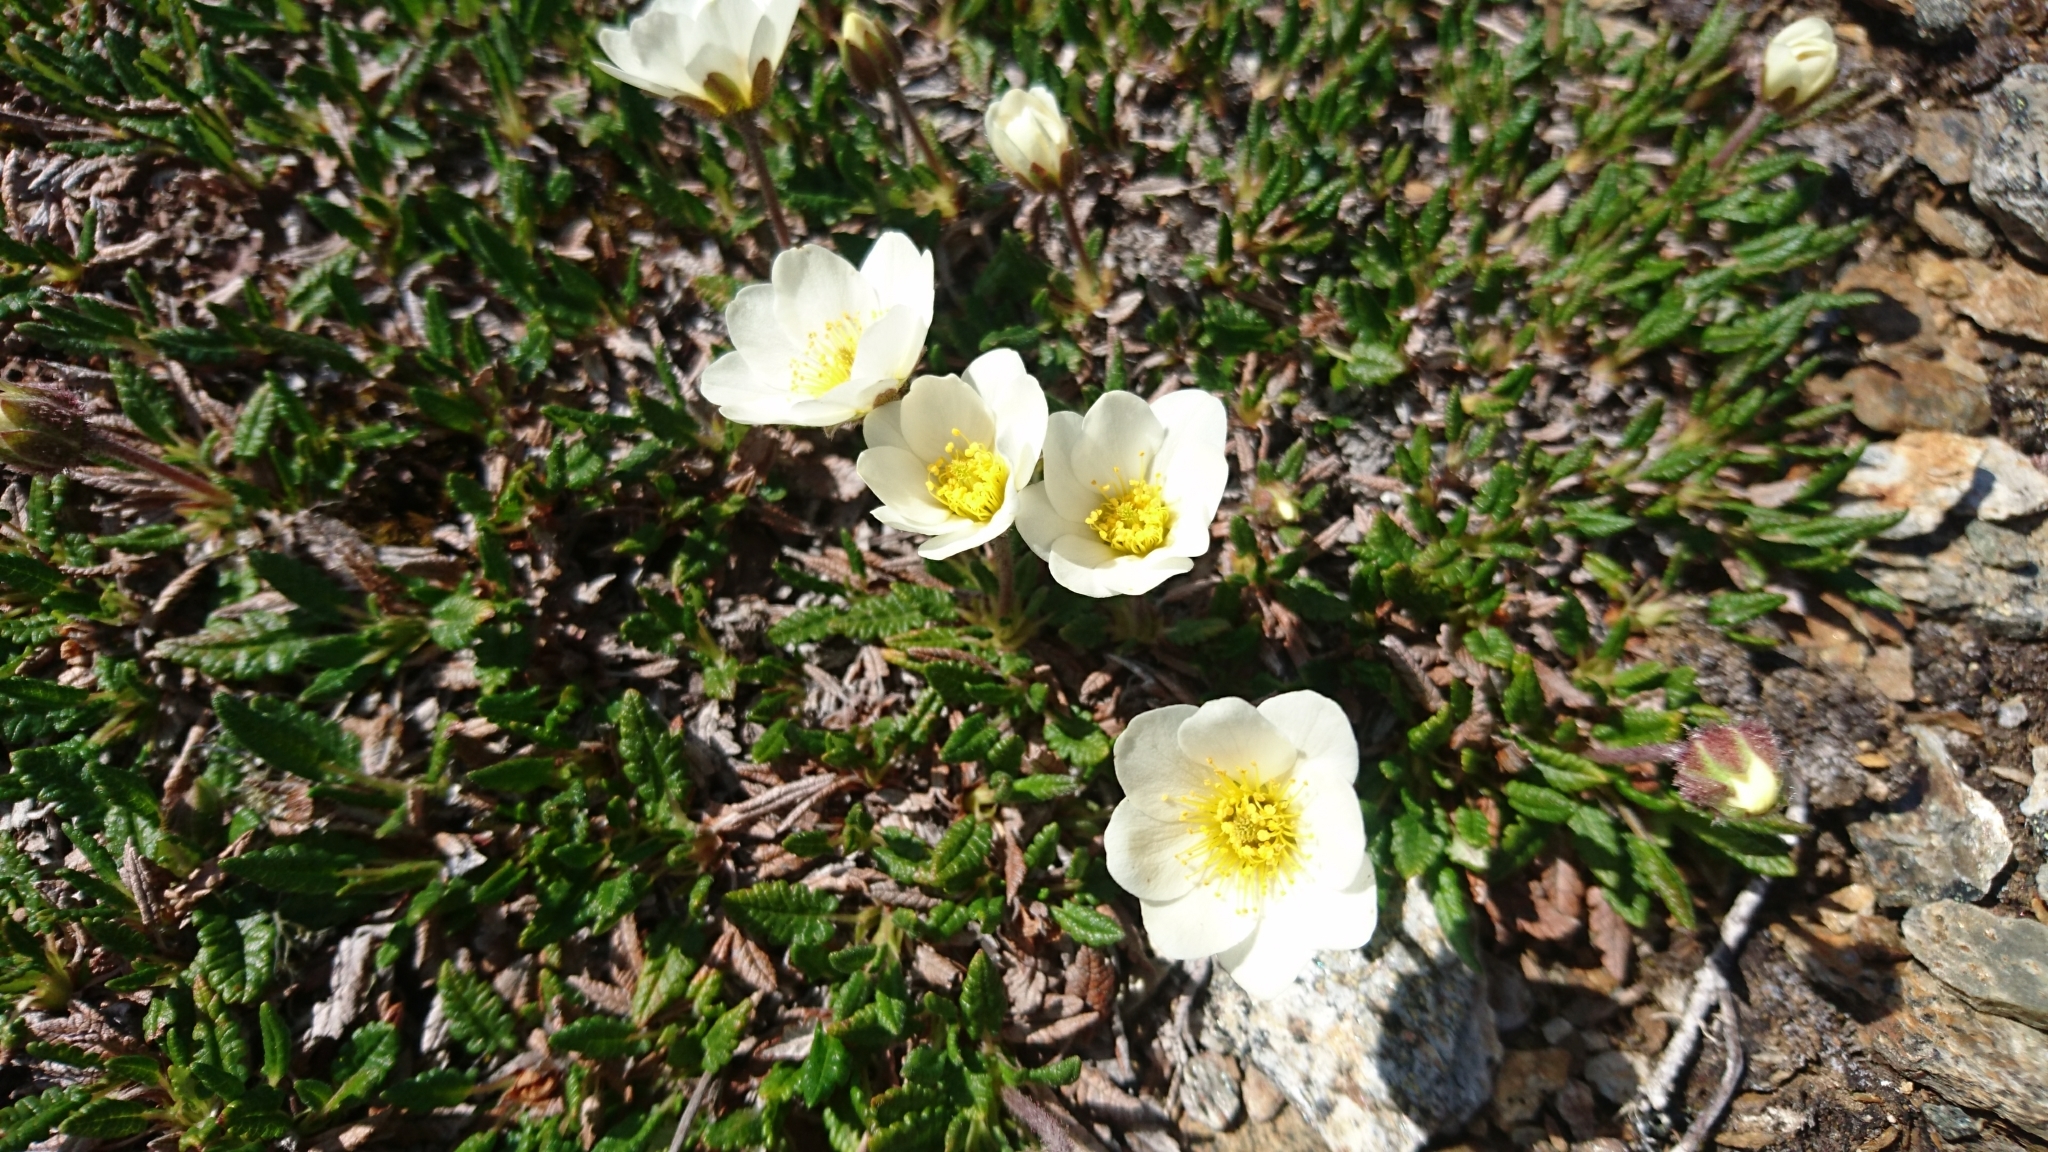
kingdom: Plantae
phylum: Tracheophyta
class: Magnoliopsida
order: Rosales
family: Rosaceae
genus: Dryas
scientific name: Dryas octopetala
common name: Eight-petal mountain-avens
